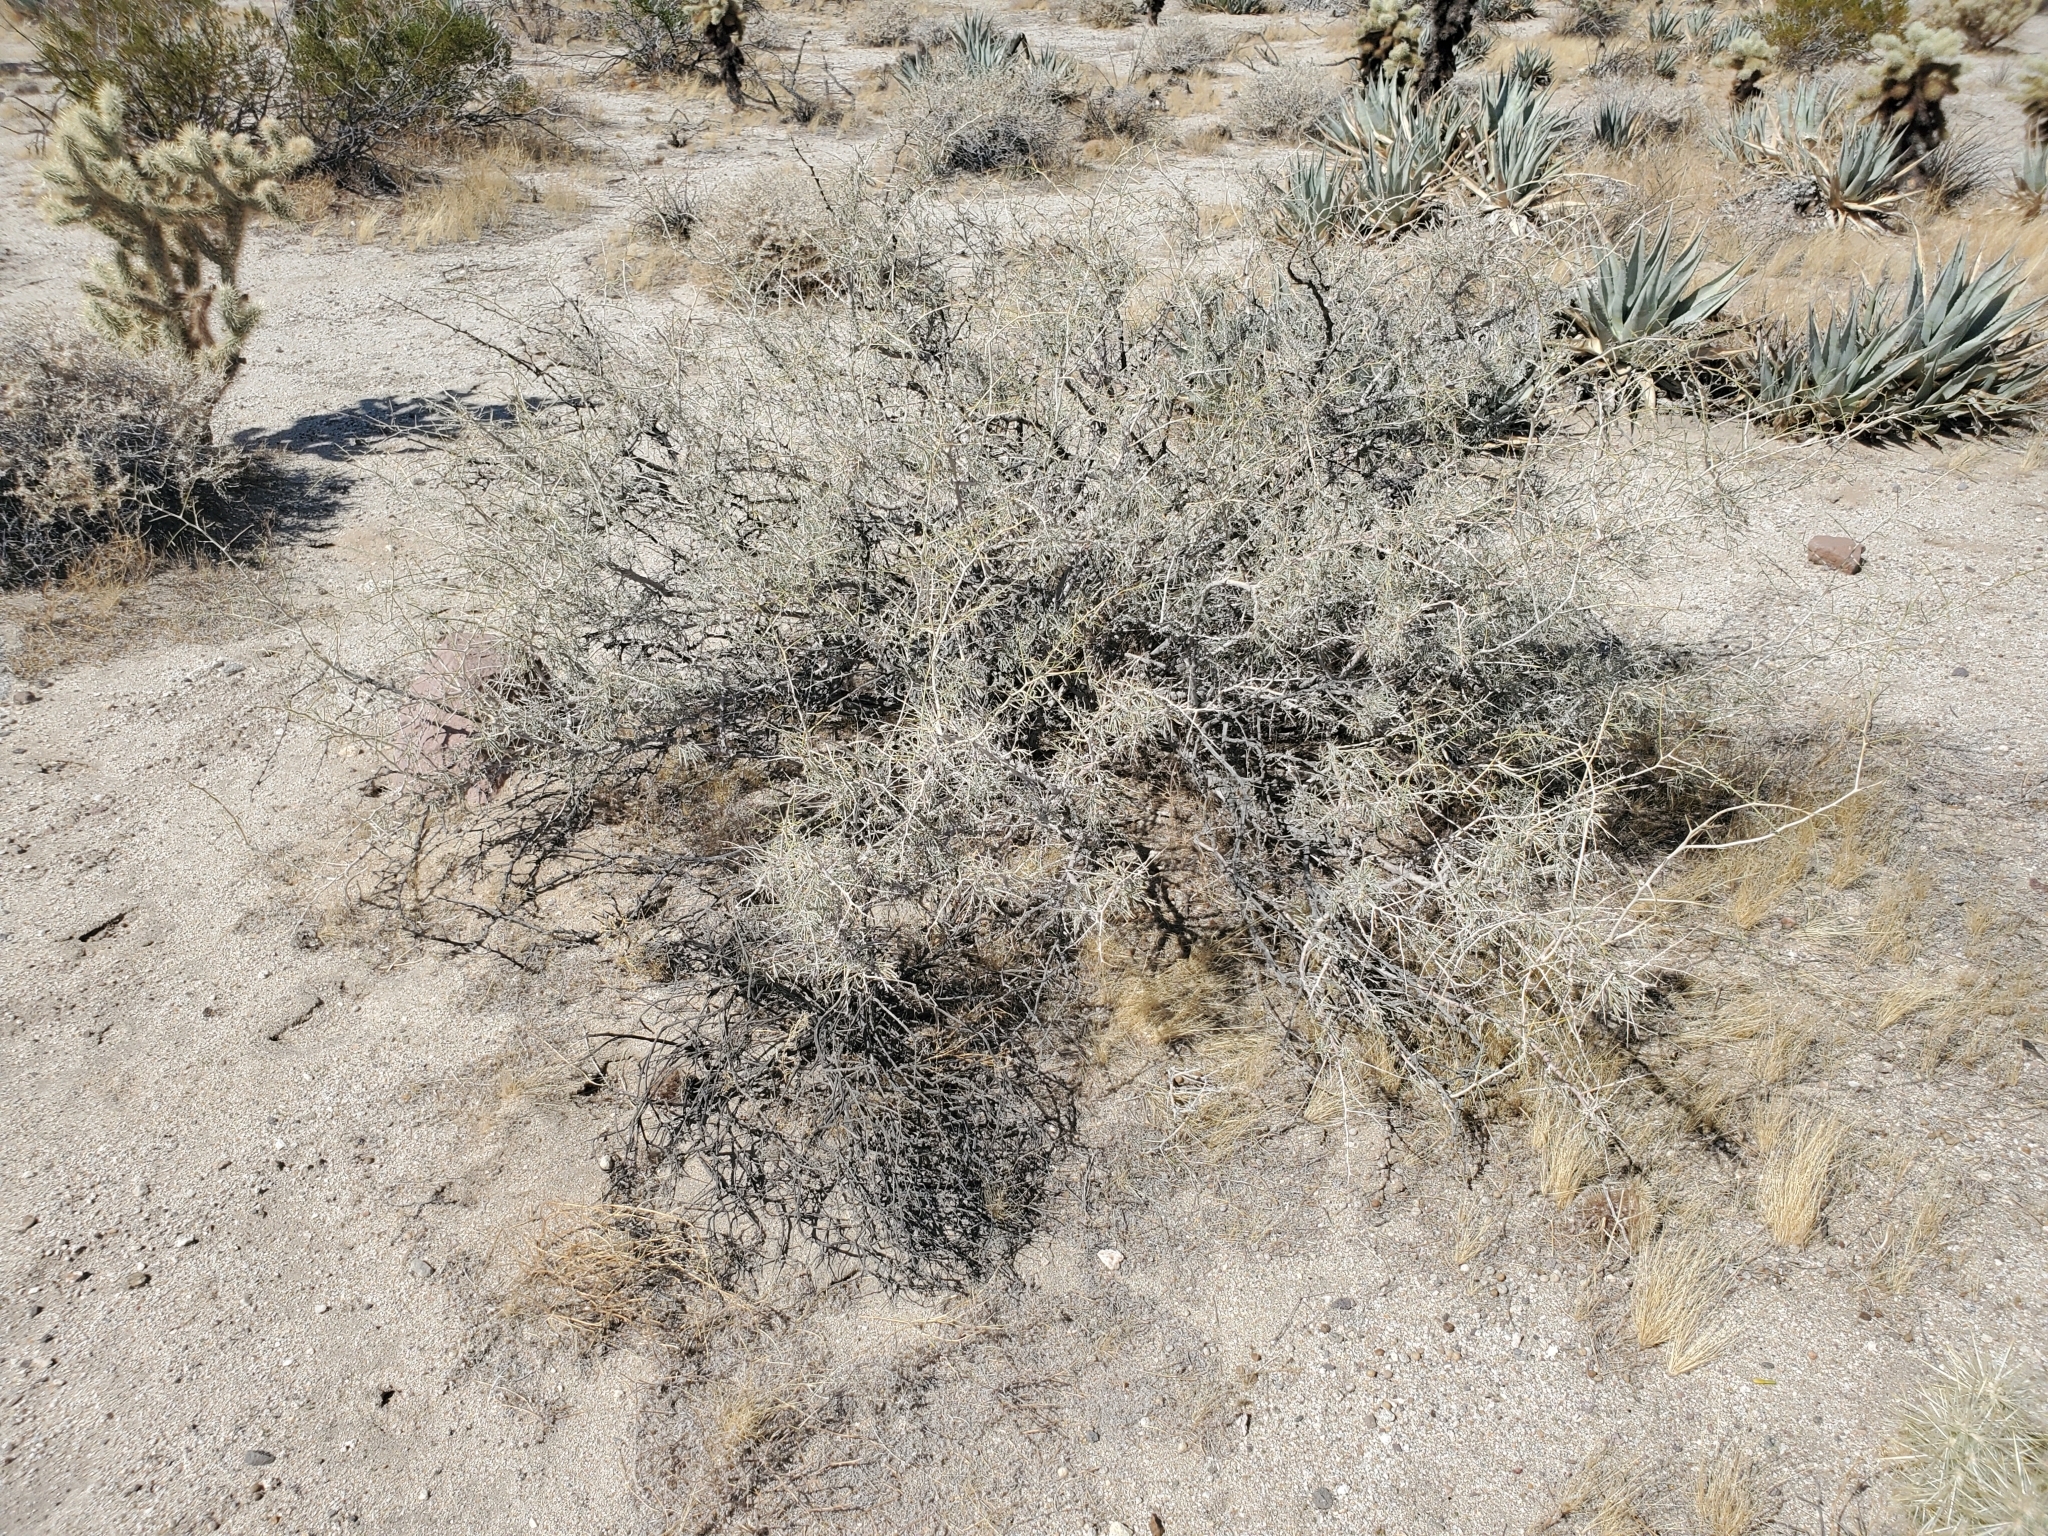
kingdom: Plantae
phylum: Tracheophyta
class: Magnoliopsida
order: Fabales
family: Fabaceae
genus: Psorothamnus
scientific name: Psorothamnus schottii
